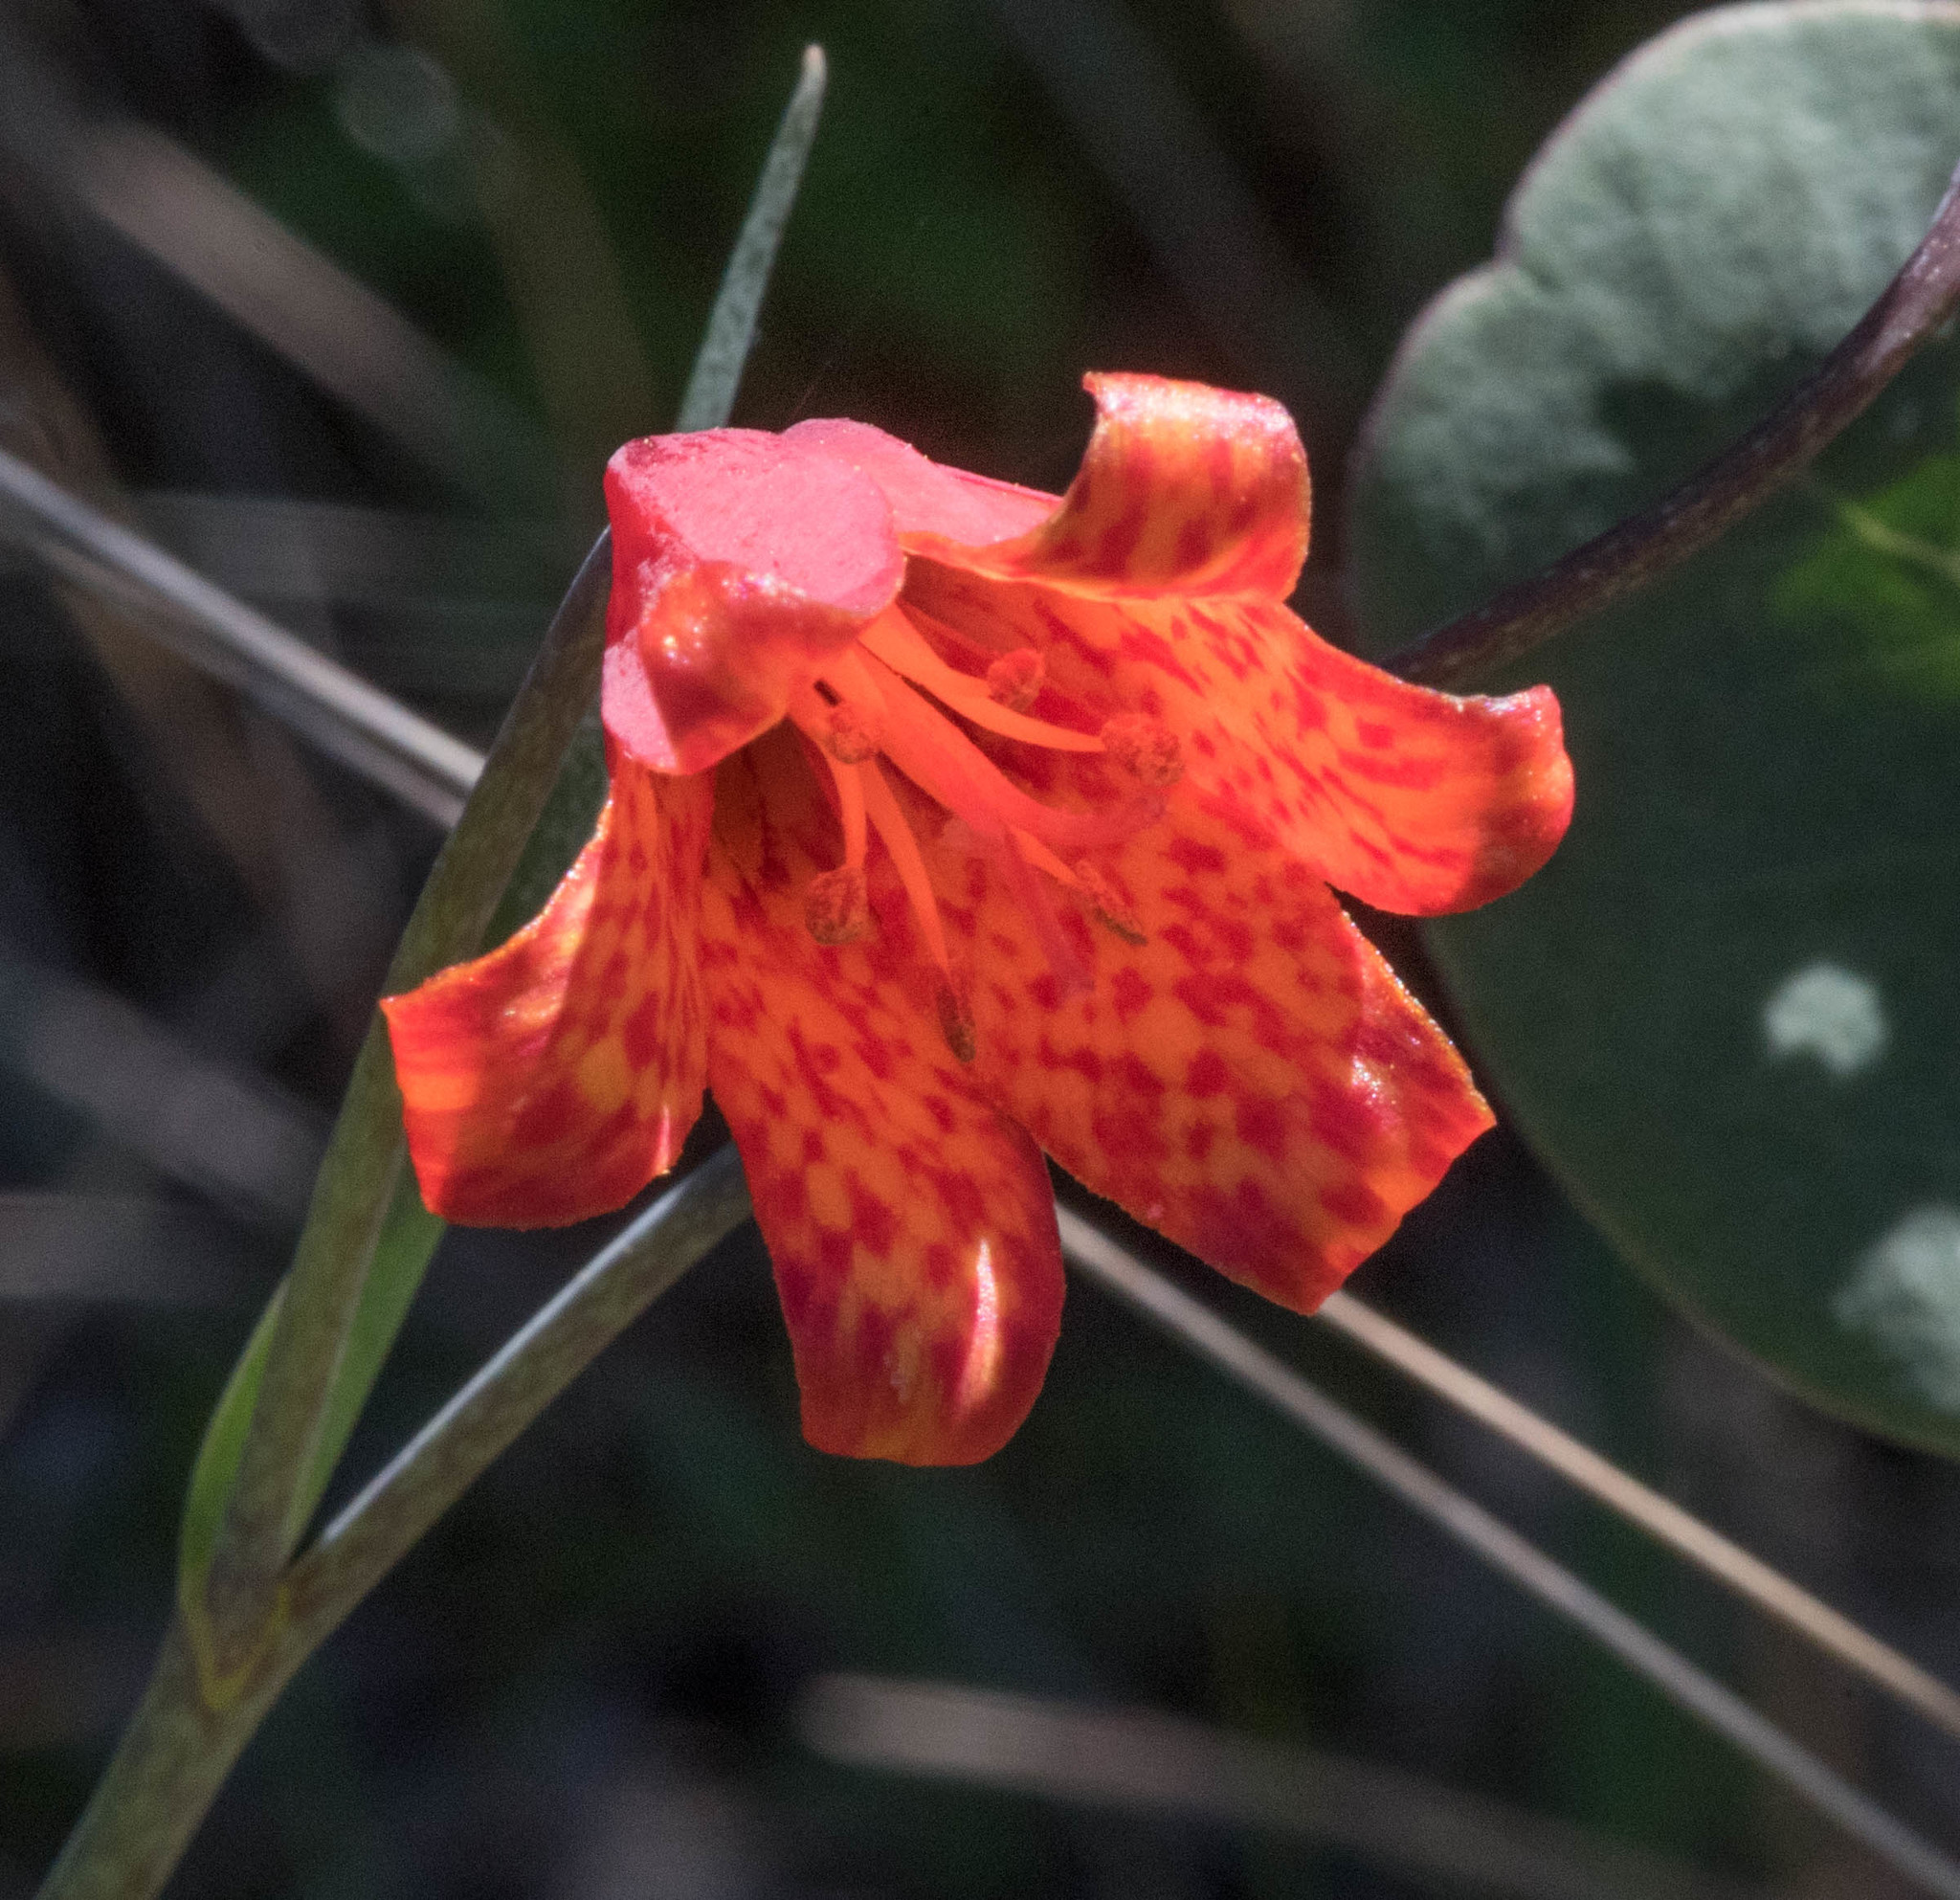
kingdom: Plantae
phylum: Tracheophyta
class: Liliopsida
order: Liliales
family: Liliaceae
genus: Fritillaria
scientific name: Fritillaria recurva
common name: Scarlet fritillary
